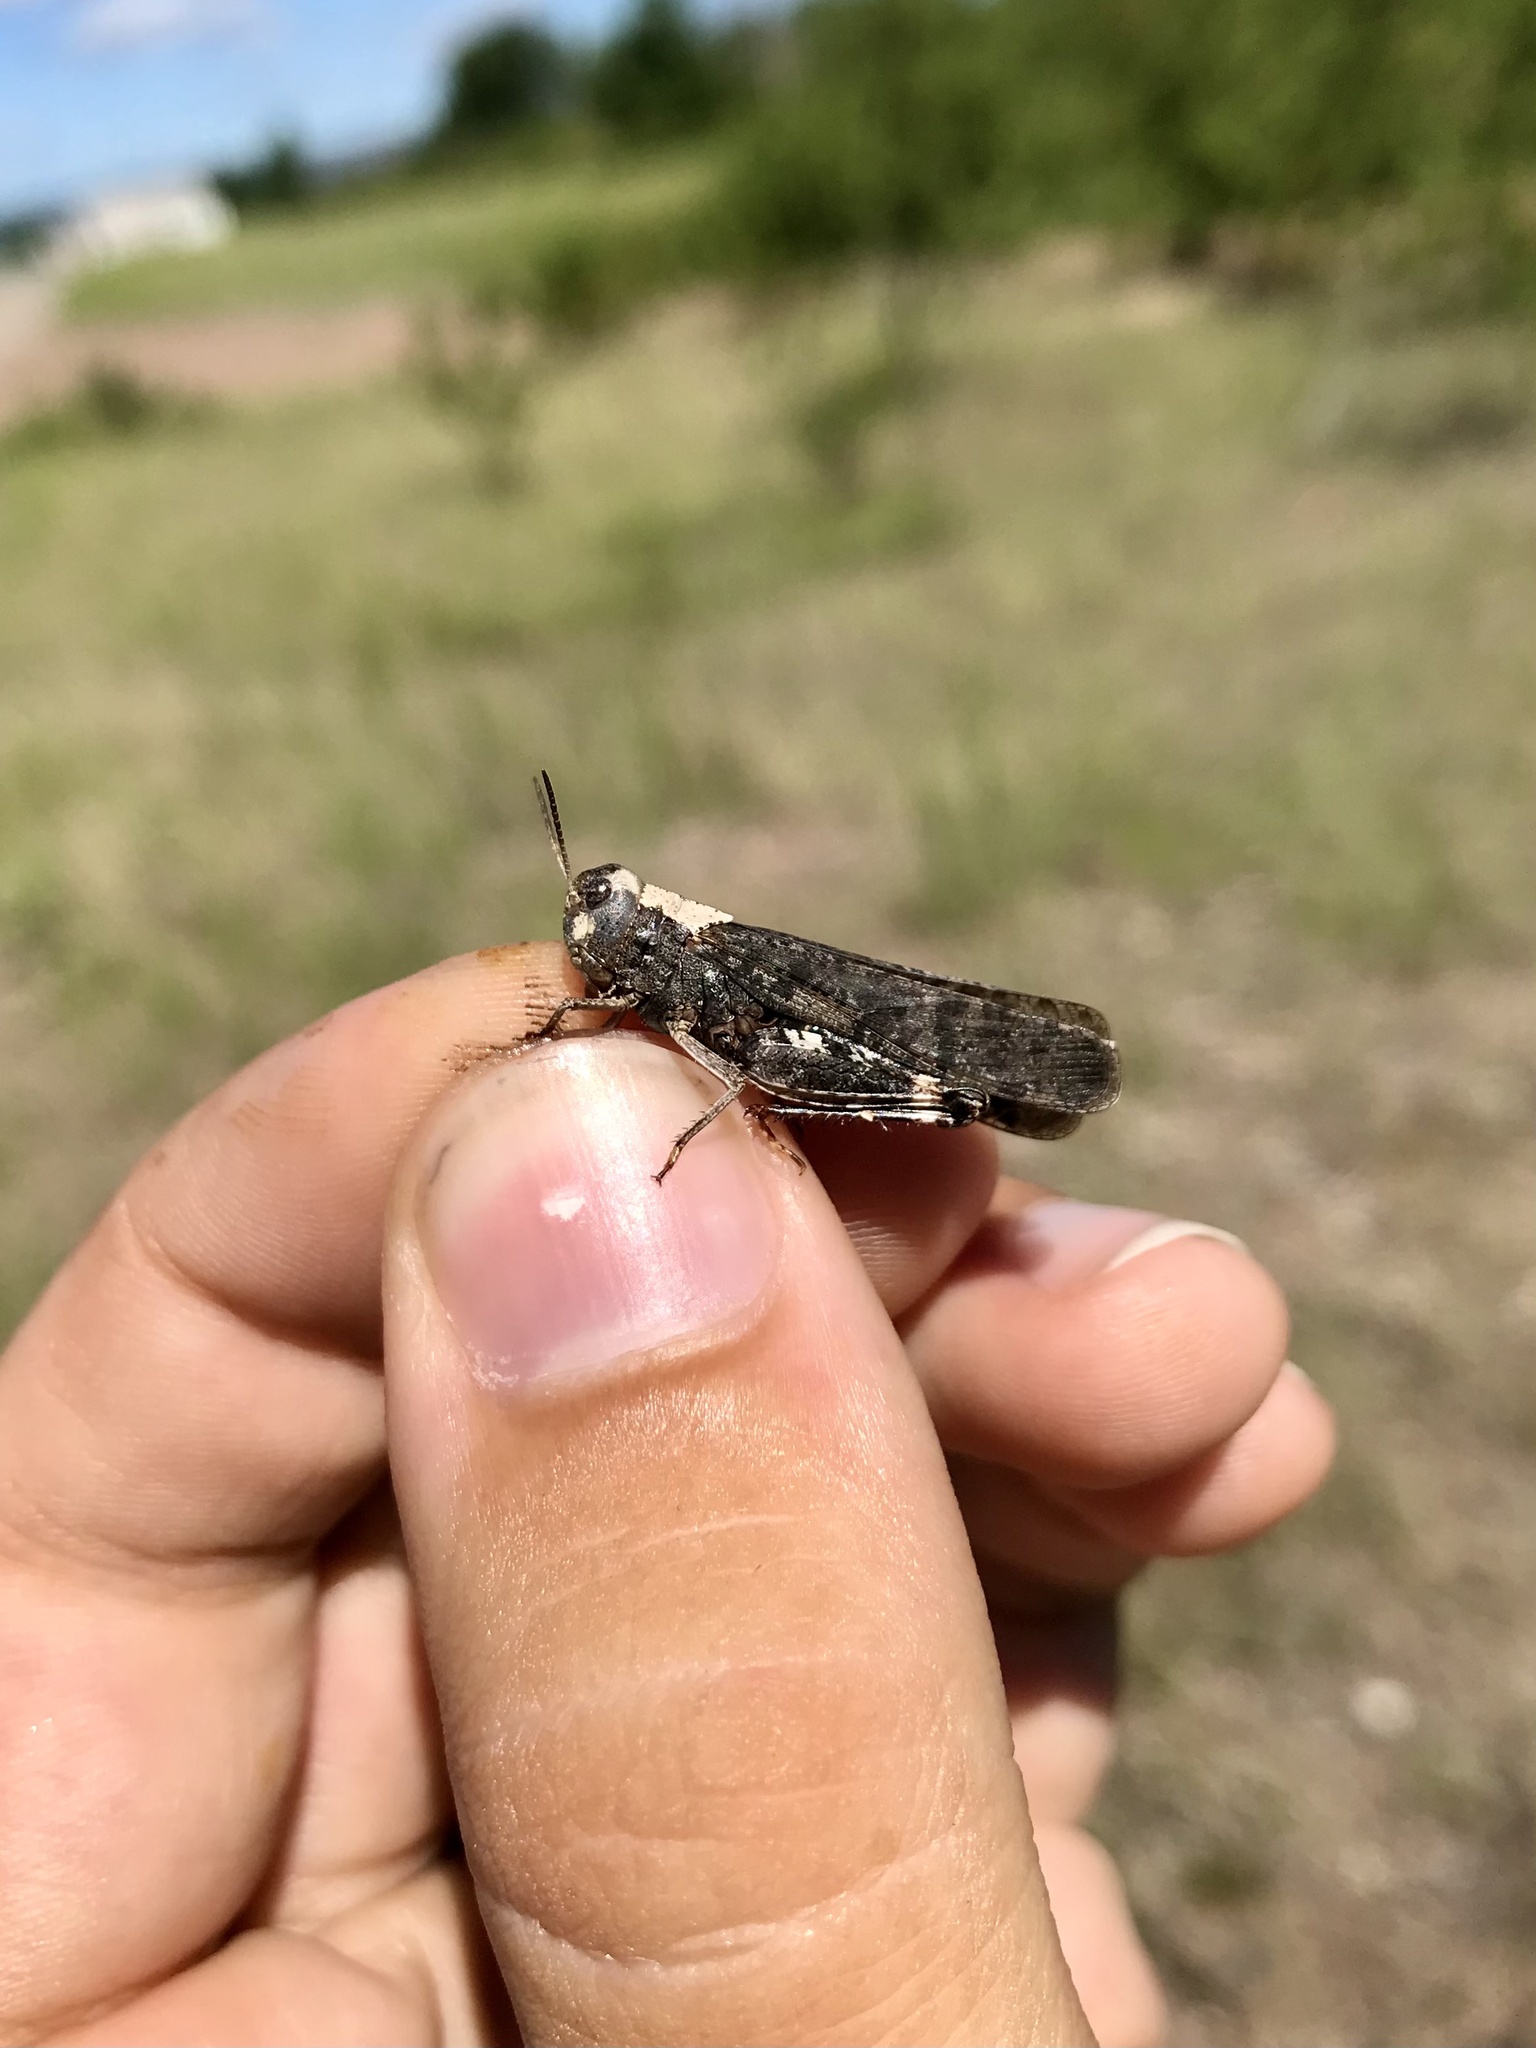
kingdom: Animalia
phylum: Arthropoda
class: Insecta
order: Orthoptera
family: Acrididae
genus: Arphia
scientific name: Arphia pseudo-nietana
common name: Red-winged grasshopper
